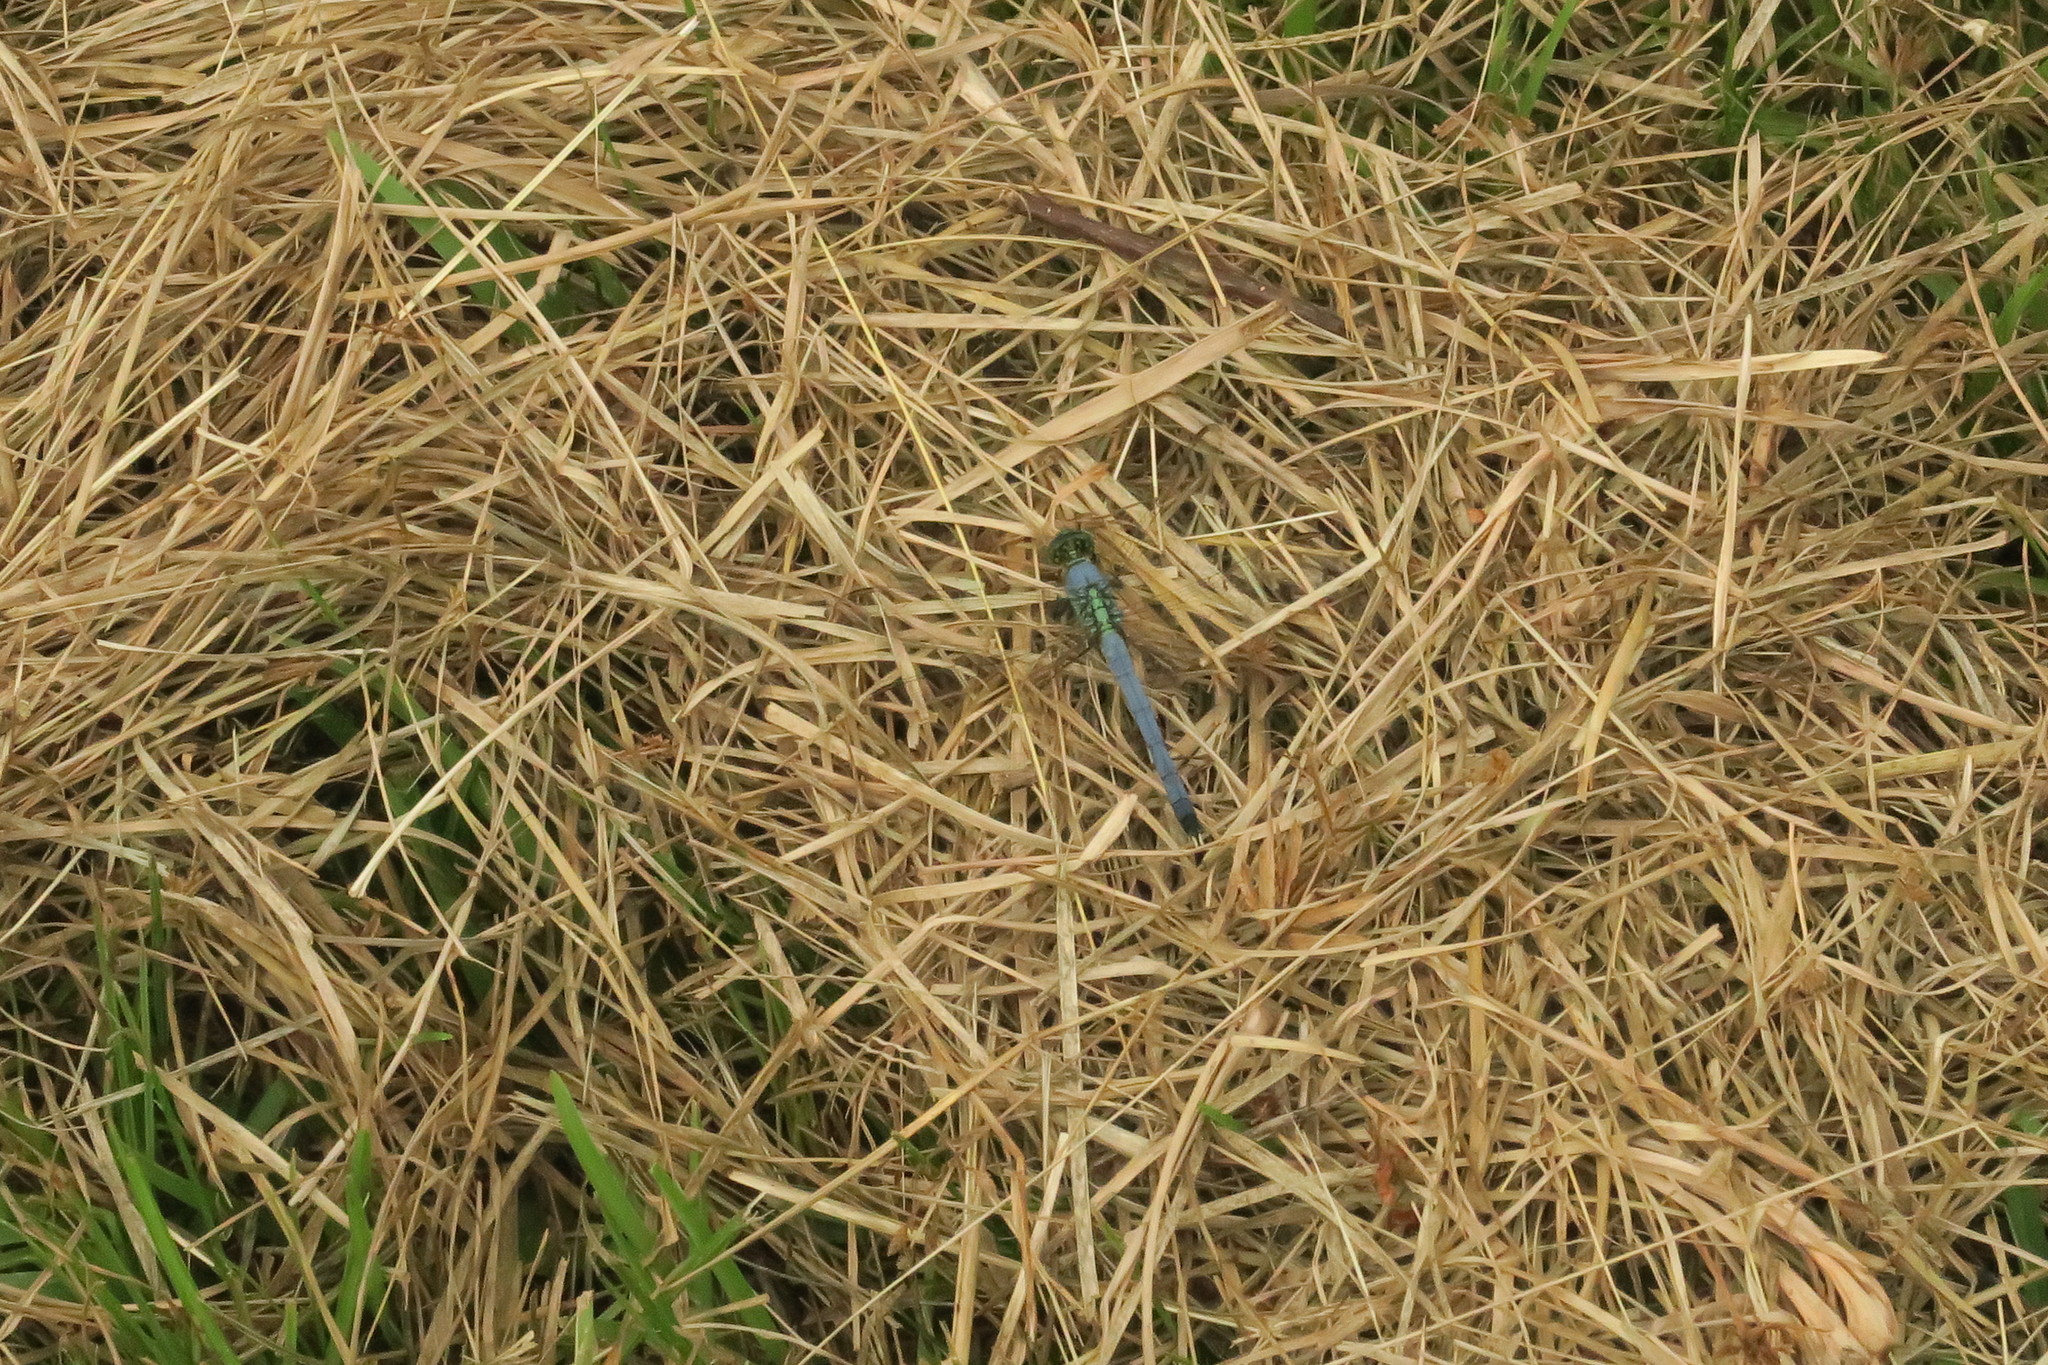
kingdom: Animalia
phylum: Arthropoda
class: Insecta
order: Odonata
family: Libellulidae
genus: Erythemis
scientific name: Erythemis simplicicollis
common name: Eastern pondhawk
